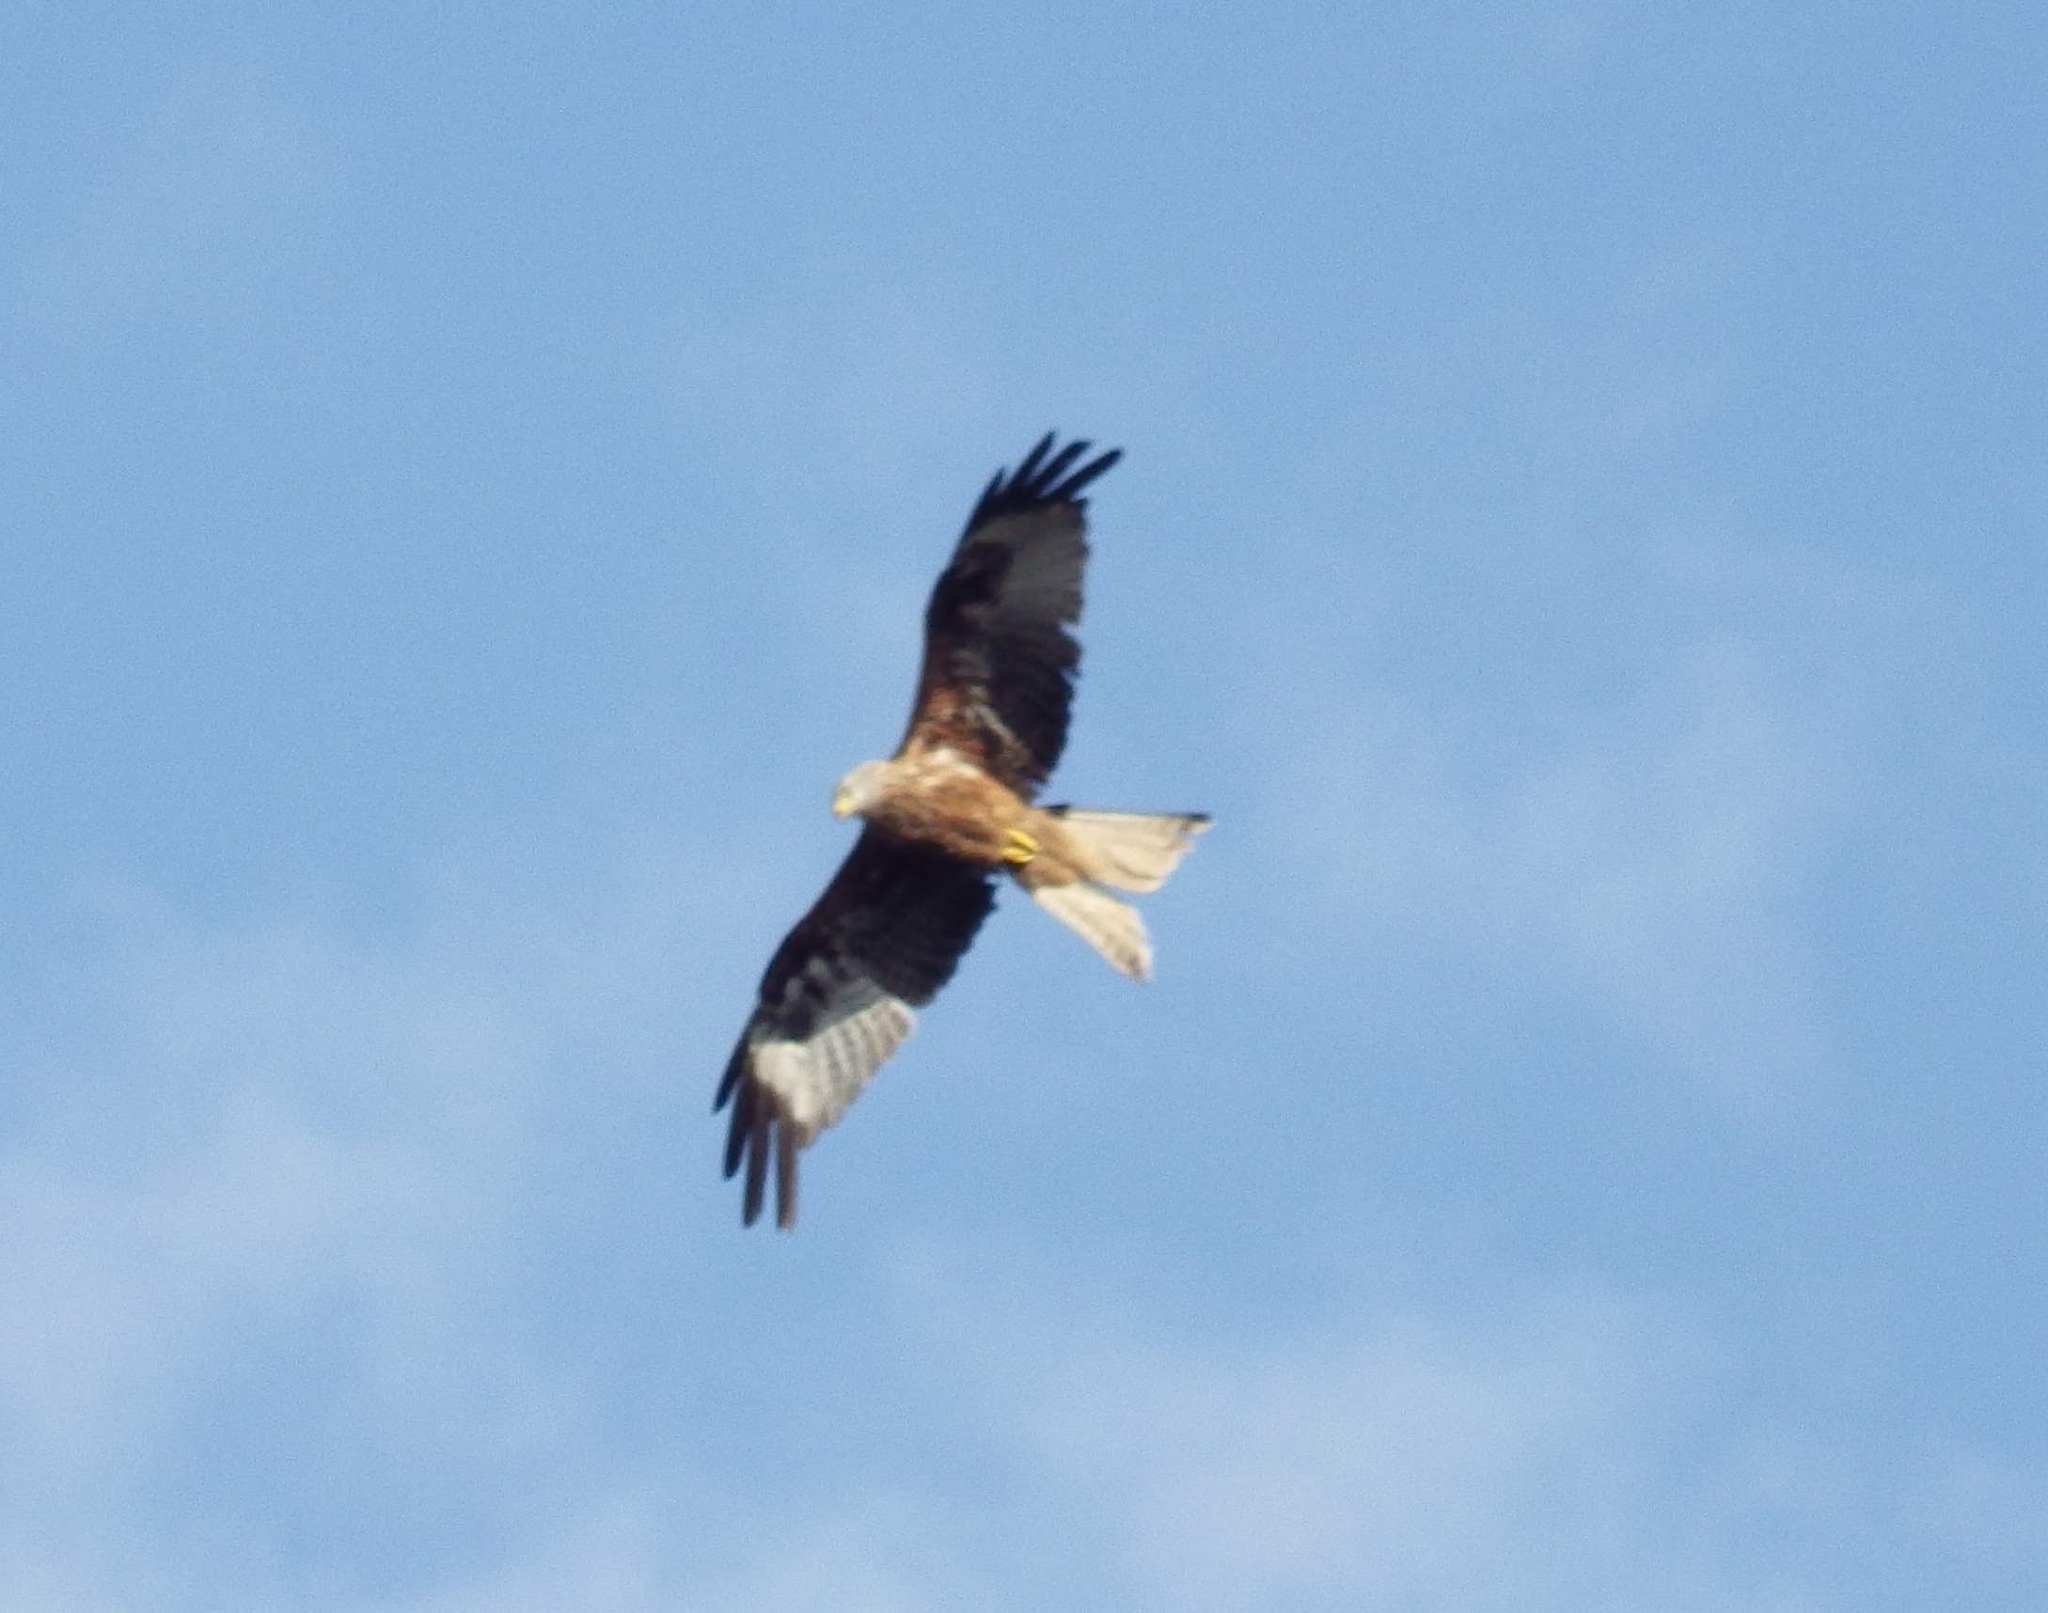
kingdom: Animalia
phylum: Chordata
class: Aves
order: Accipitriformes
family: Accipitridae
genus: Milvus
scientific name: Milvus milvus
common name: Red kite
